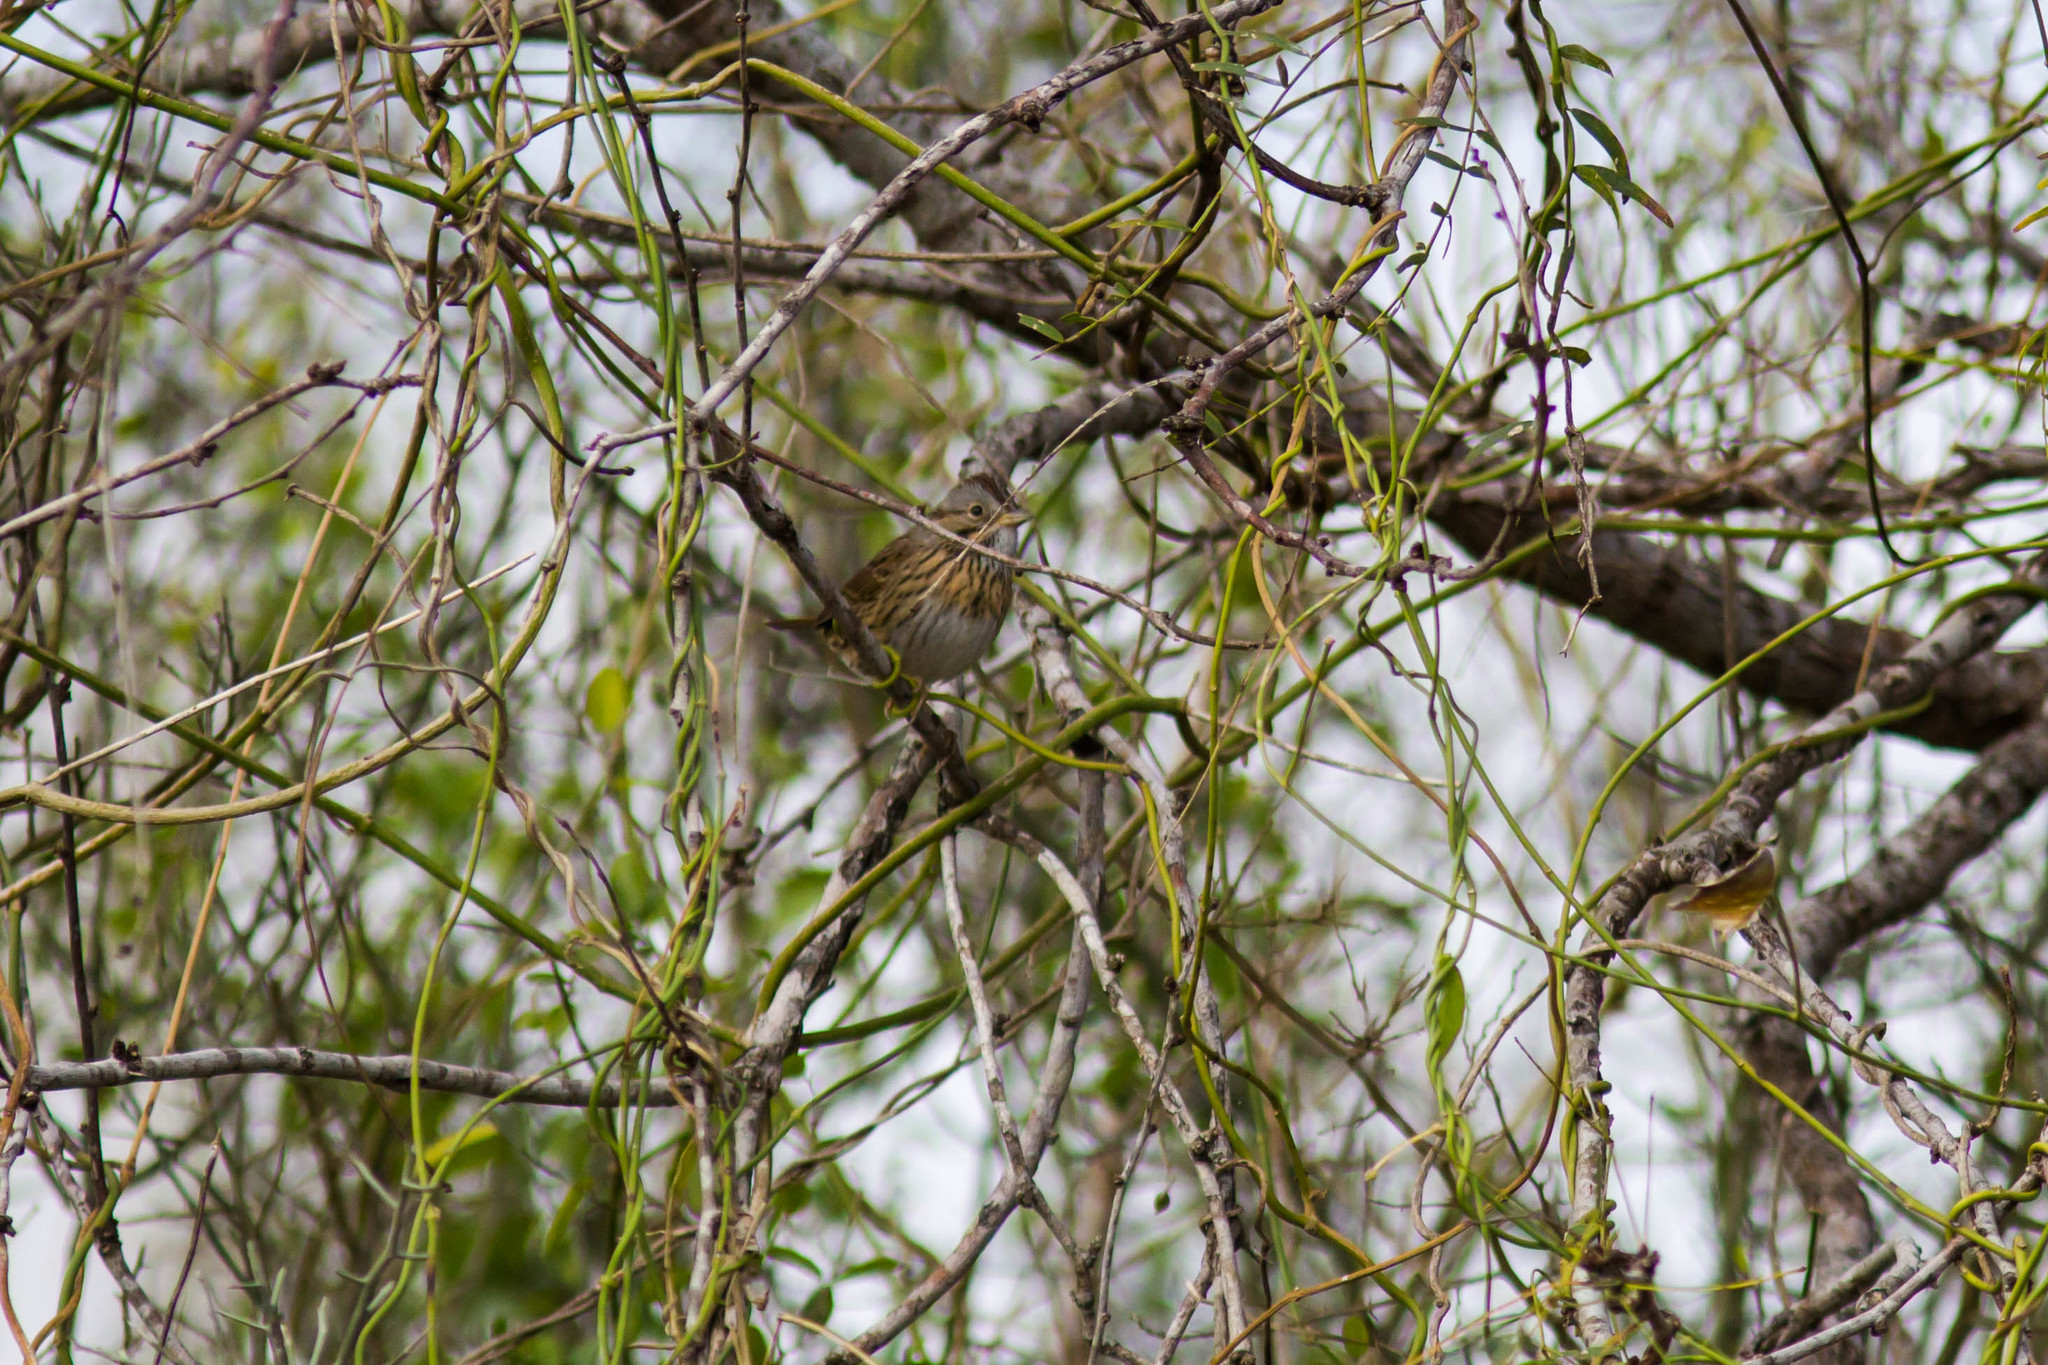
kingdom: Animalia
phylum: Chordata
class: Aves
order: Passeriformes
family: Passerellidae
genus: Melospiza
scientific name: Melospiza lincolnii
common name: Lincoln's sparrow
